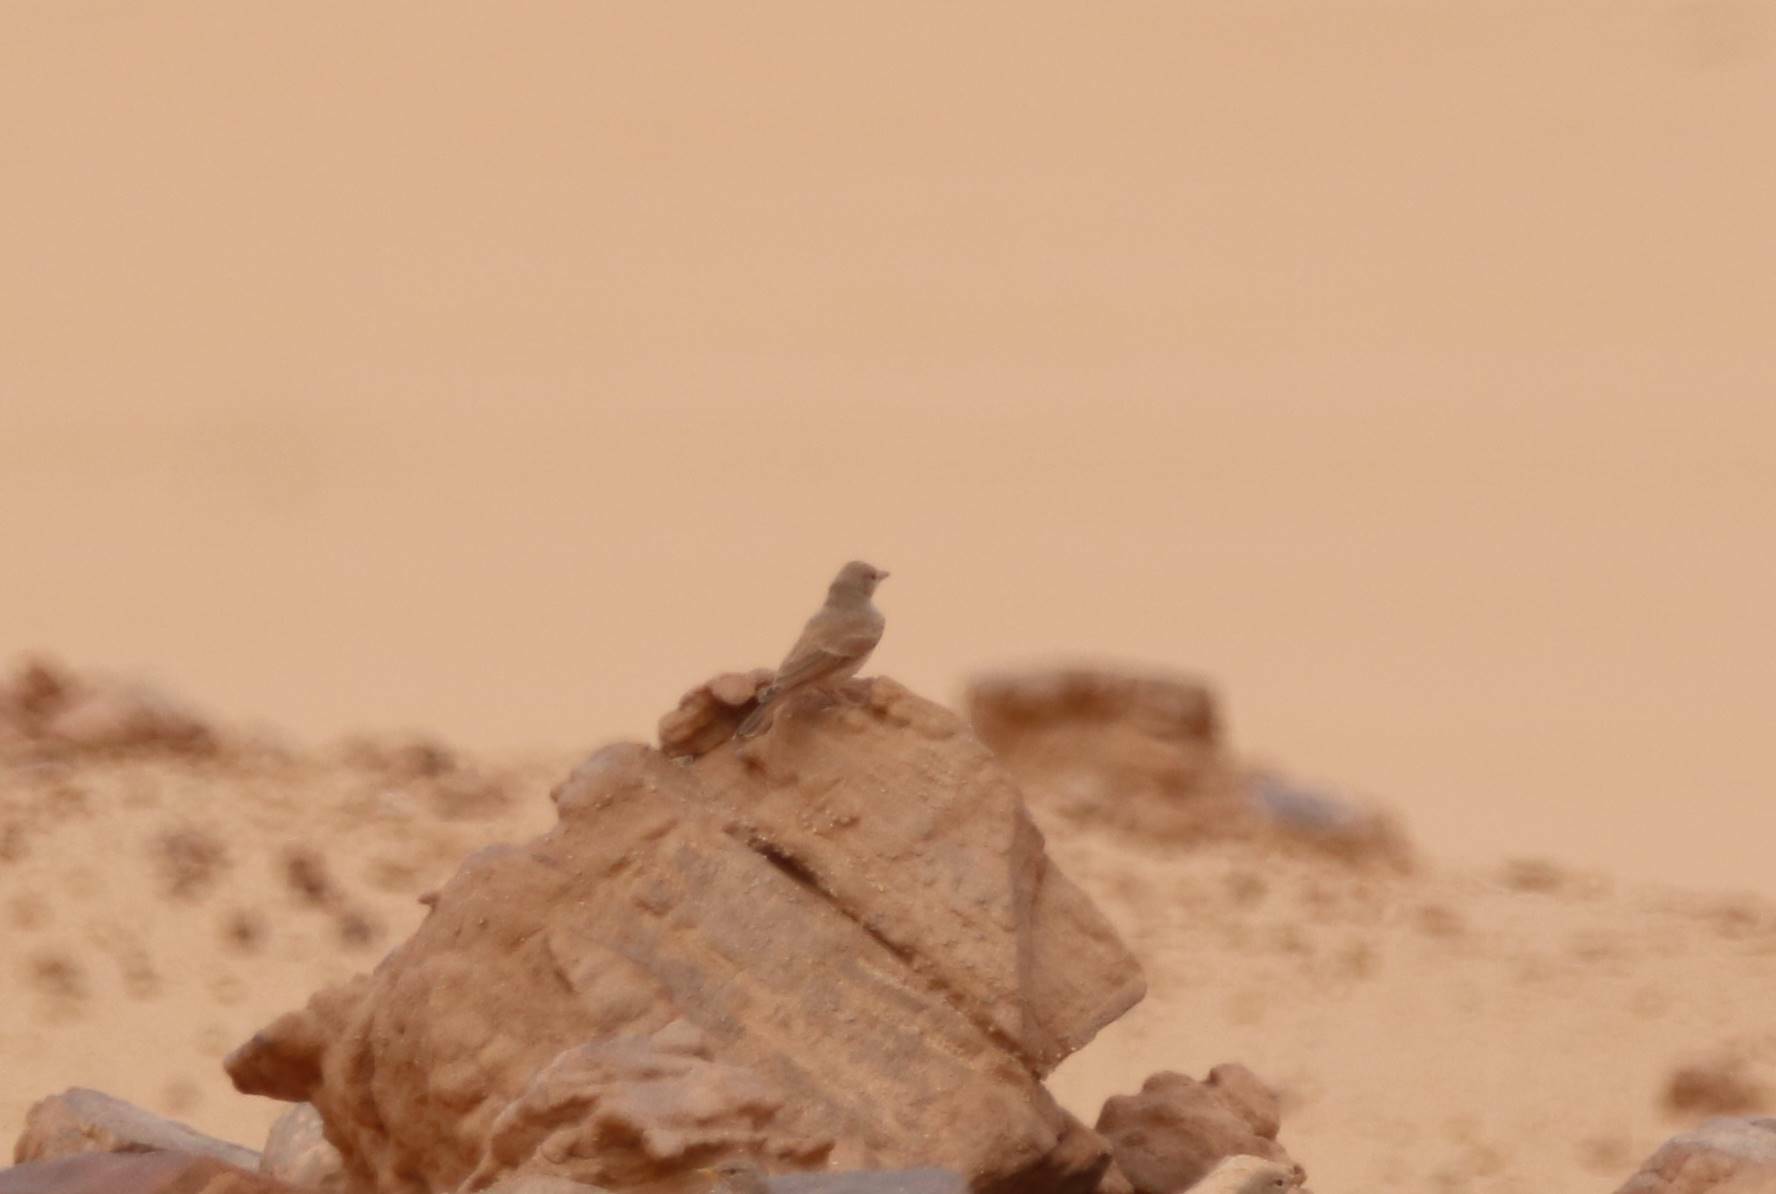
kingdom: Animalia
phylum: Chordata
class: Aves
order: Passeriformes
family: Alaudidae
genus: Ammomanes
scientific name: Ammomanes deserti
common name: Desert lark
